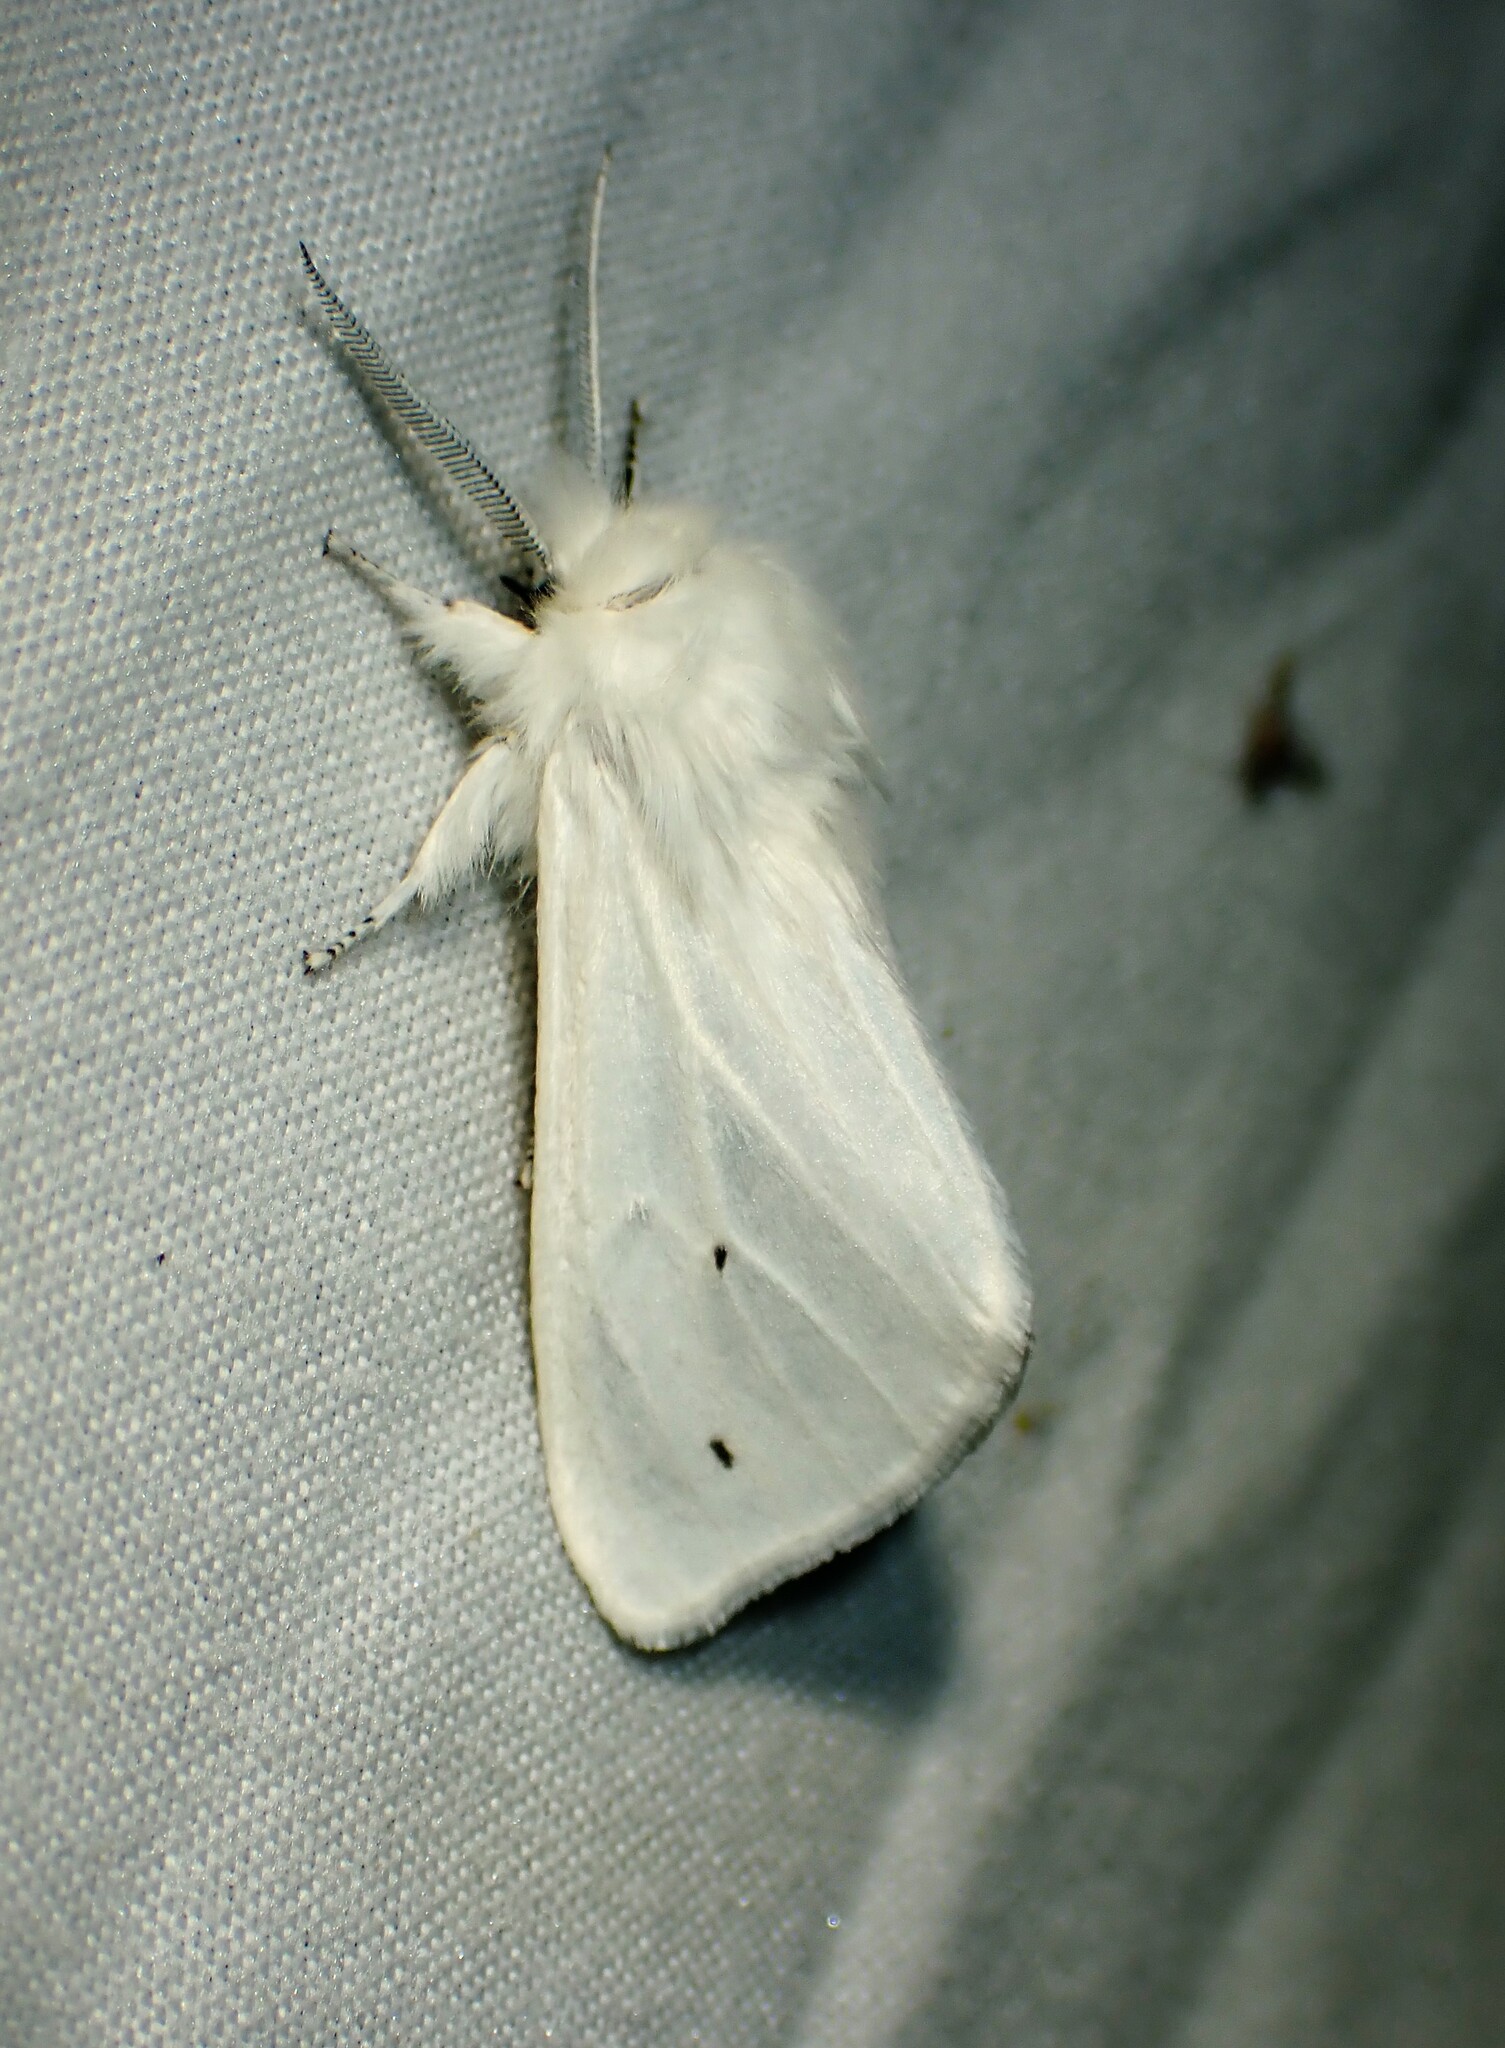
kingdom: Animalia
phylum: Arthropoda
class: Insecta
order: Lepidoptera
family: Erebidae
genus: Spilosoma
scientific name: Spilosoma virginica
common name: Virginia tiger moth
